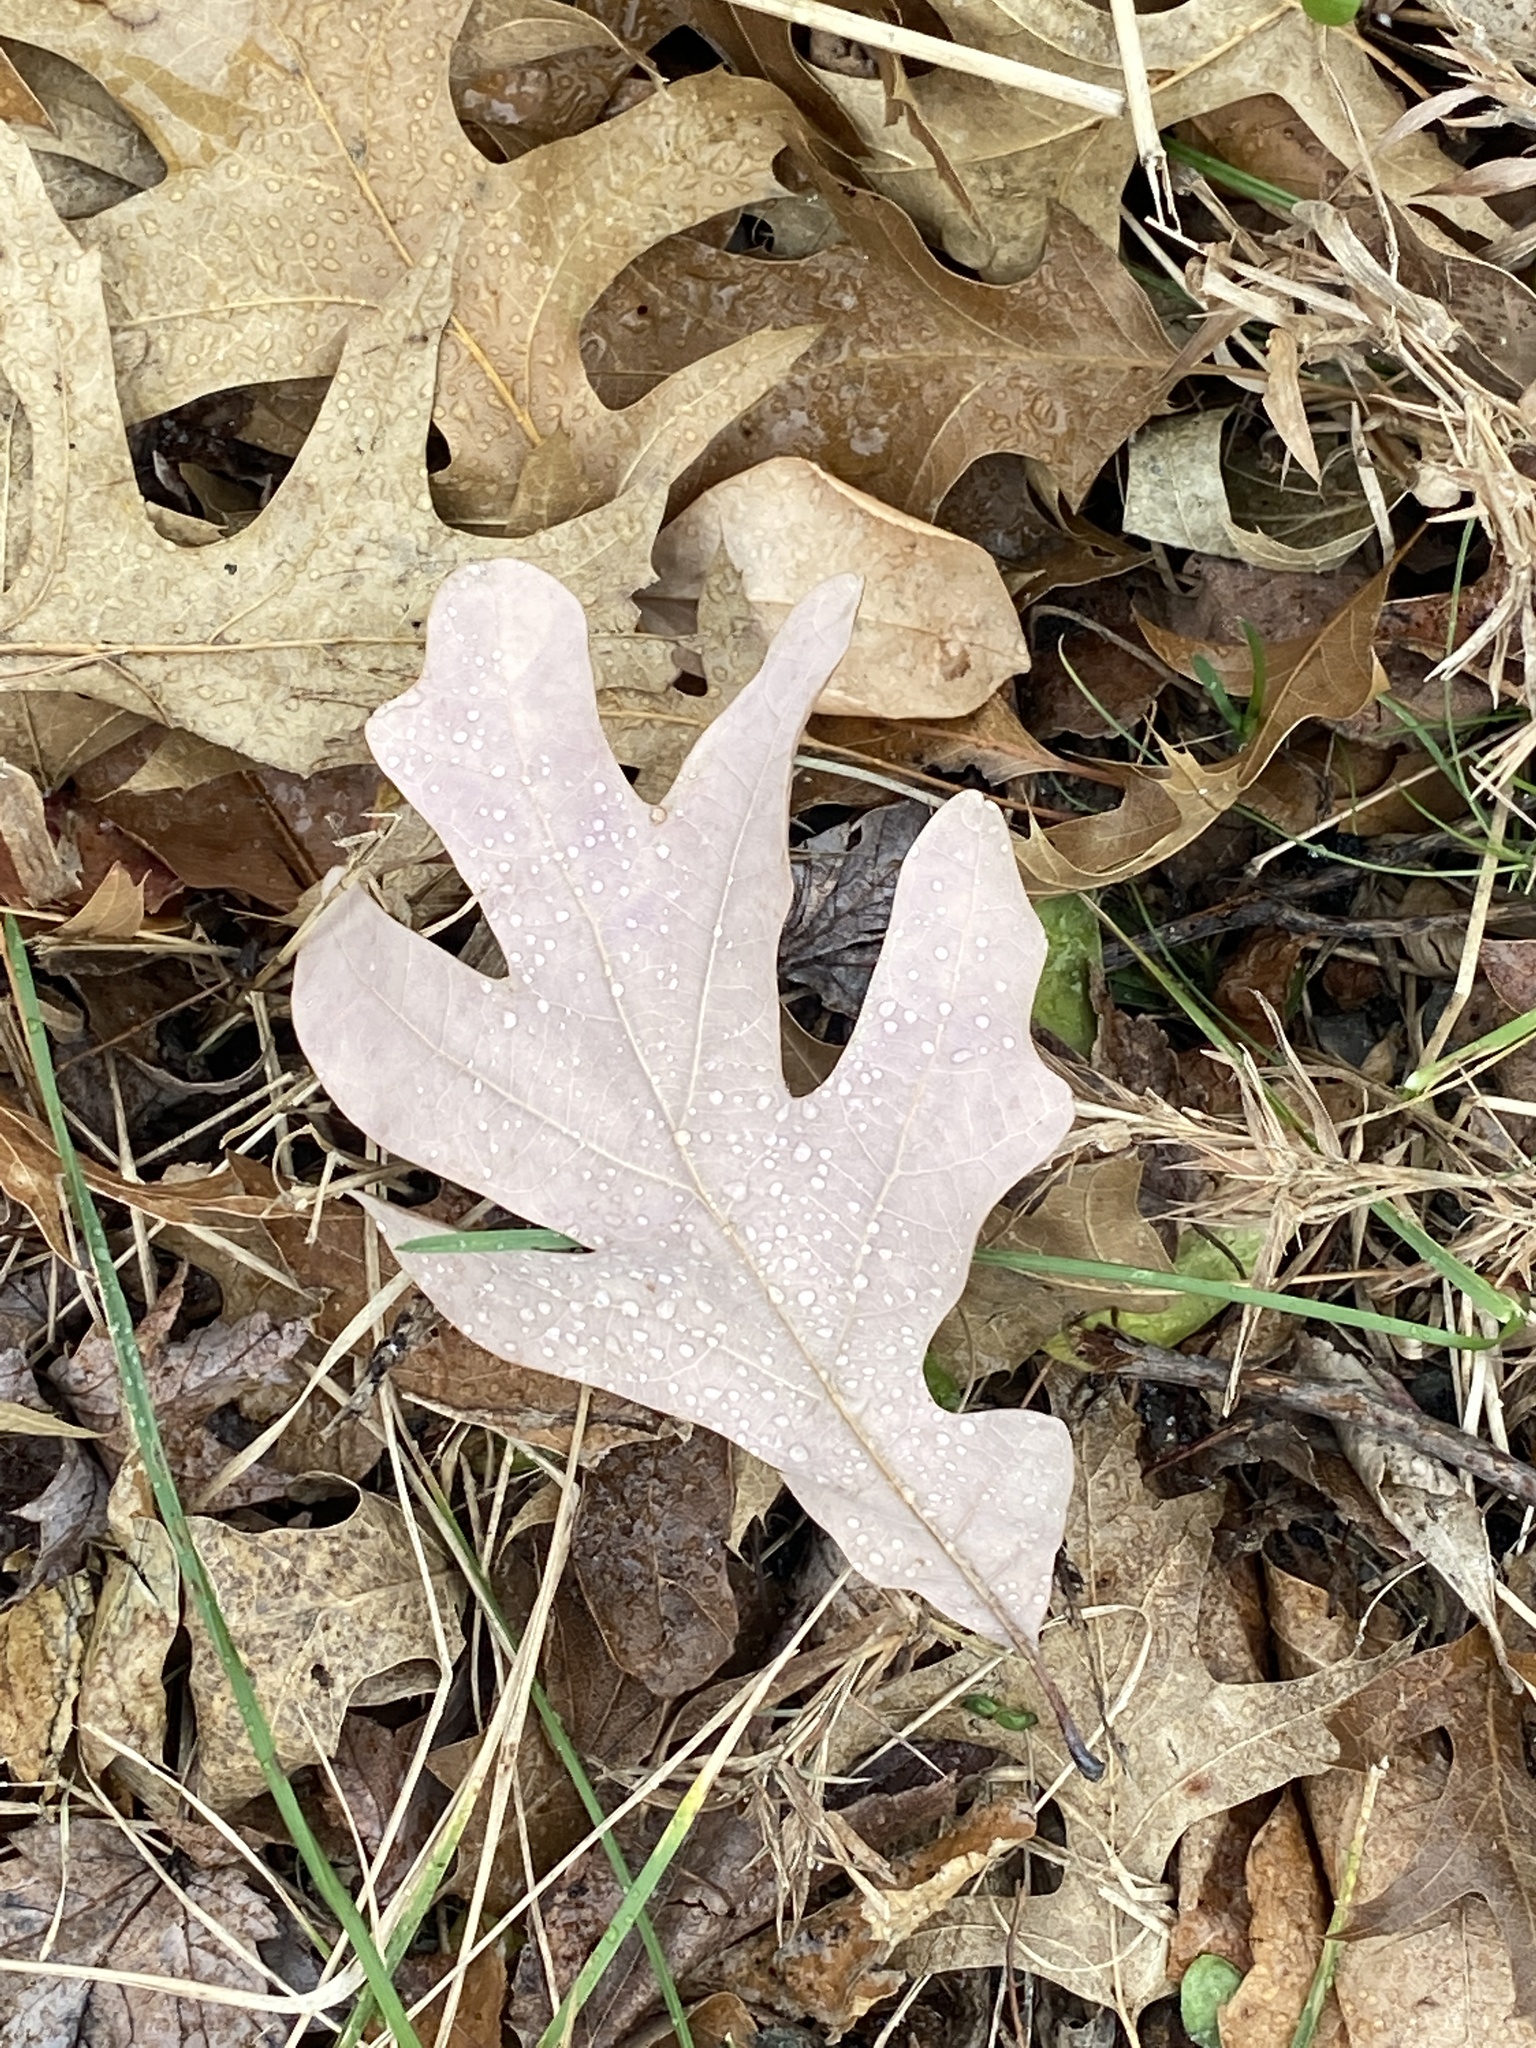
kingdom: Plantae
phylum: Tracheophyta
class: Magnoliopsida
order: Fagales
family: Fagaceae
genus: Quercus
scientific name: Quercus alba
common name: White oak
